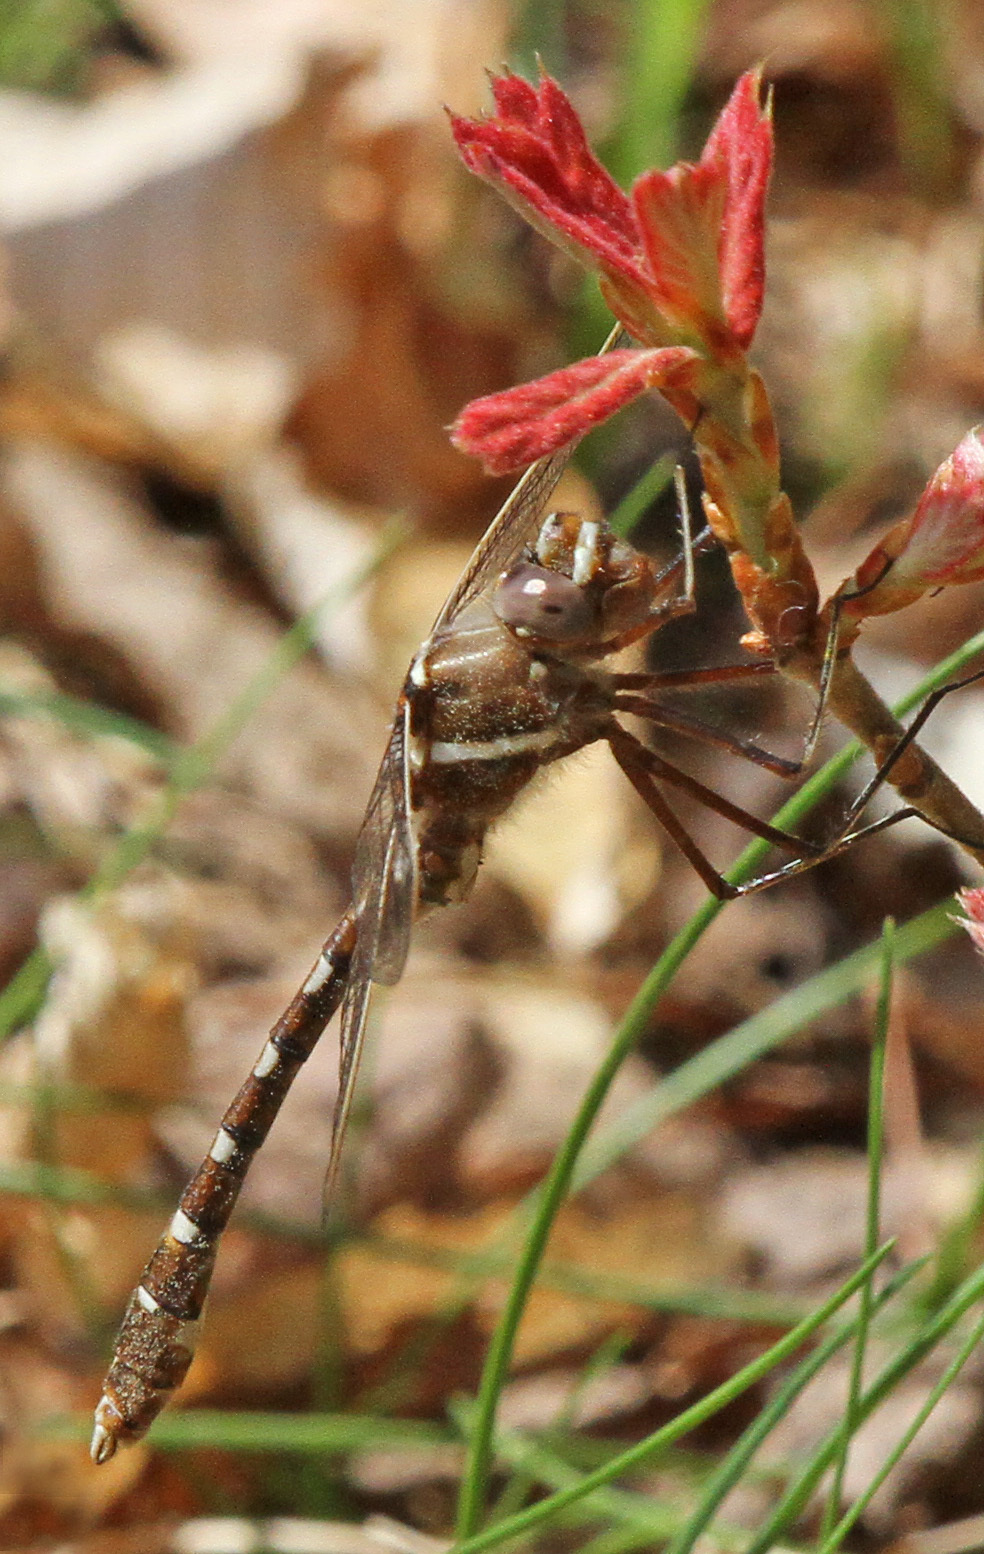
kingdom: Animalia
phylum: Arthropoda
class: Insecta
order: Odonata
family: Macromiidae
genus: Didymops
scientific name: Didymops transversa
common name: Stream cruiser
